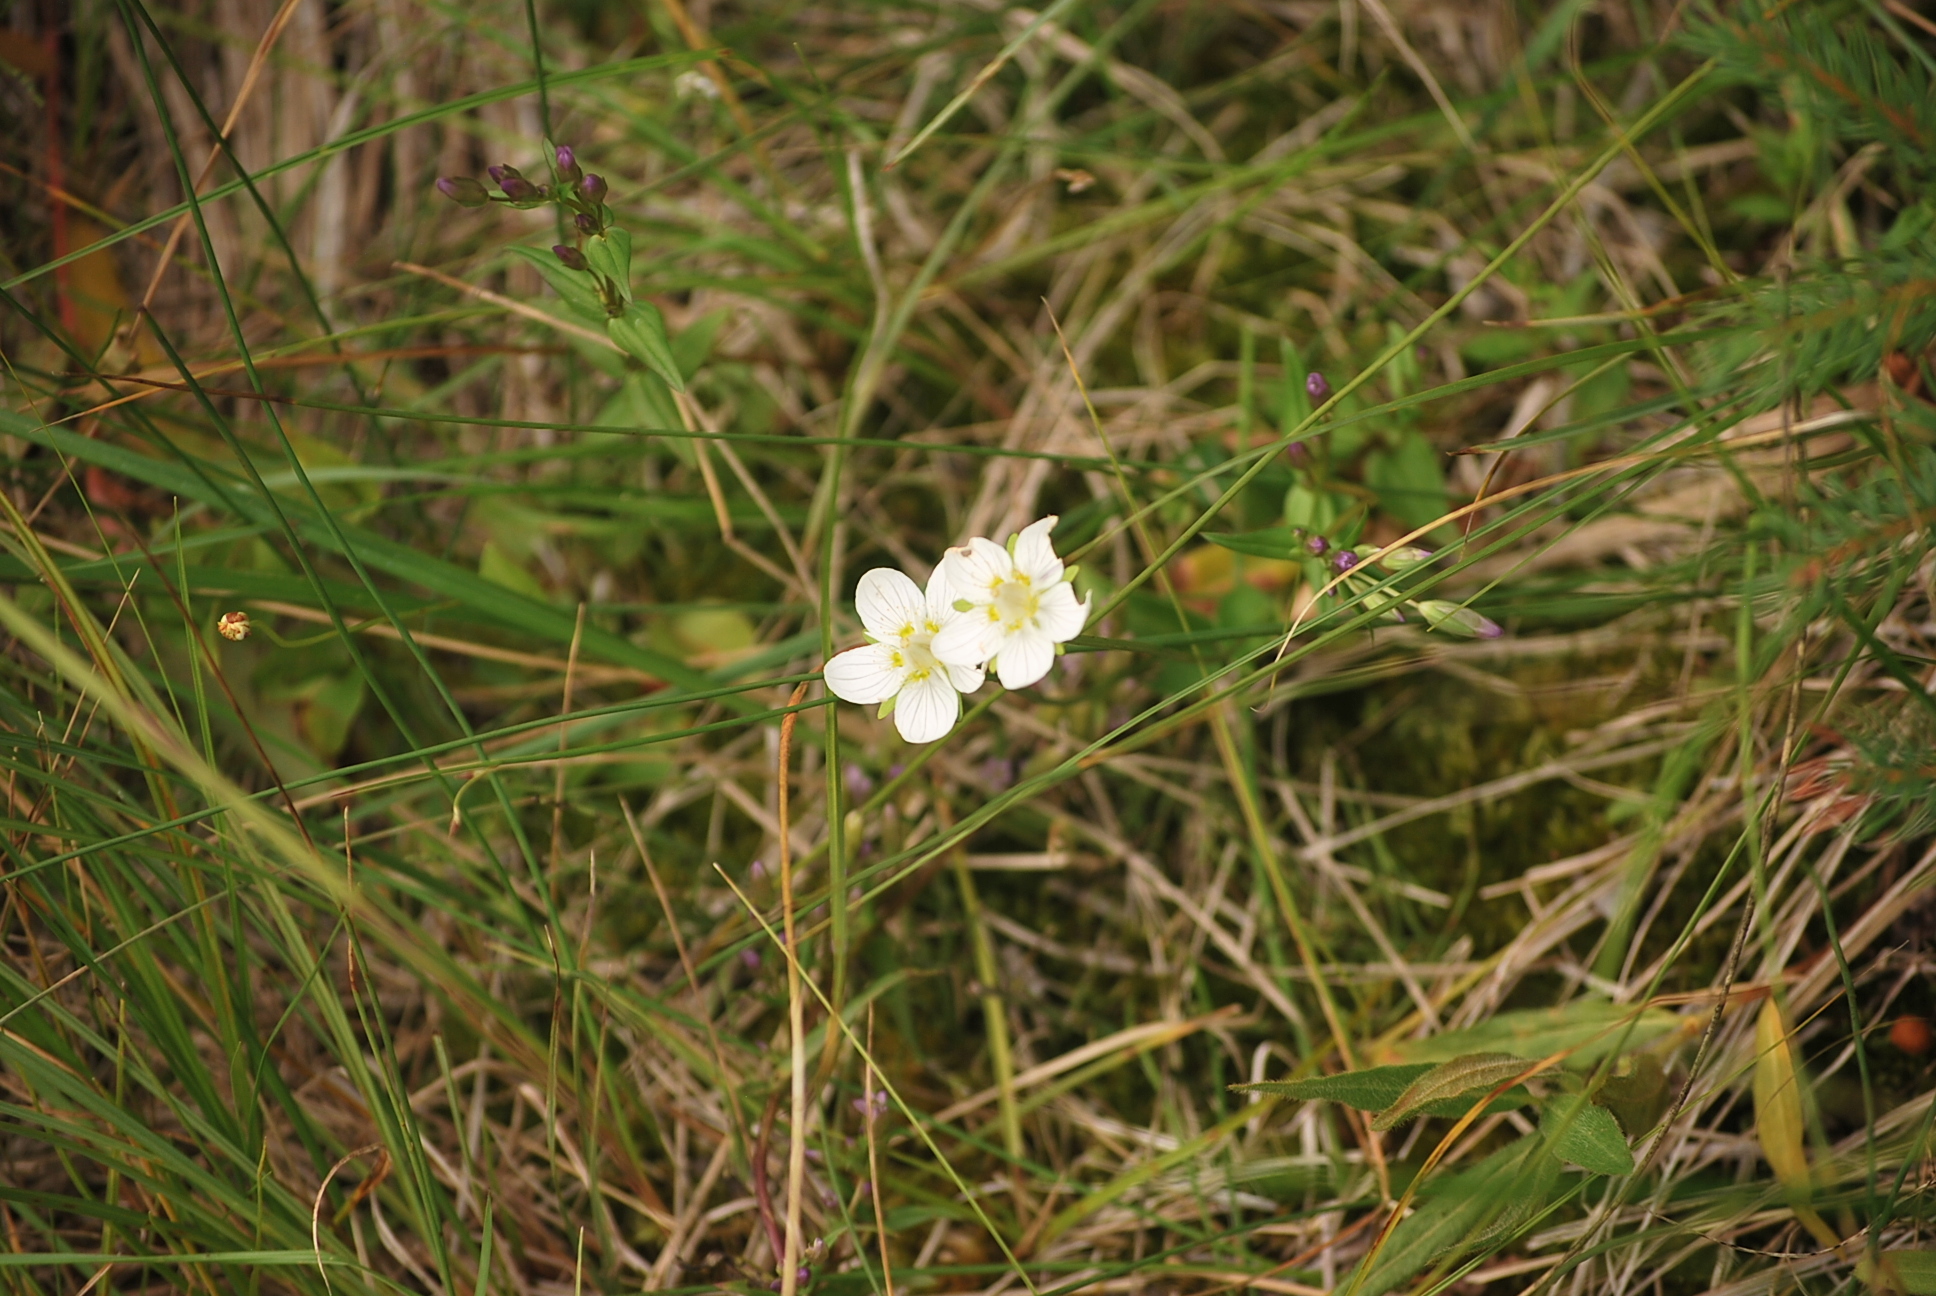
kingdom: Plantae
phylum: Tracheophyta
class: Magnoliopsida
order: Celastrales
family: Parnassiaceae
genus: Parnassia
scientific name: Parnassia palustris
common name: Grass-of-parnassus
